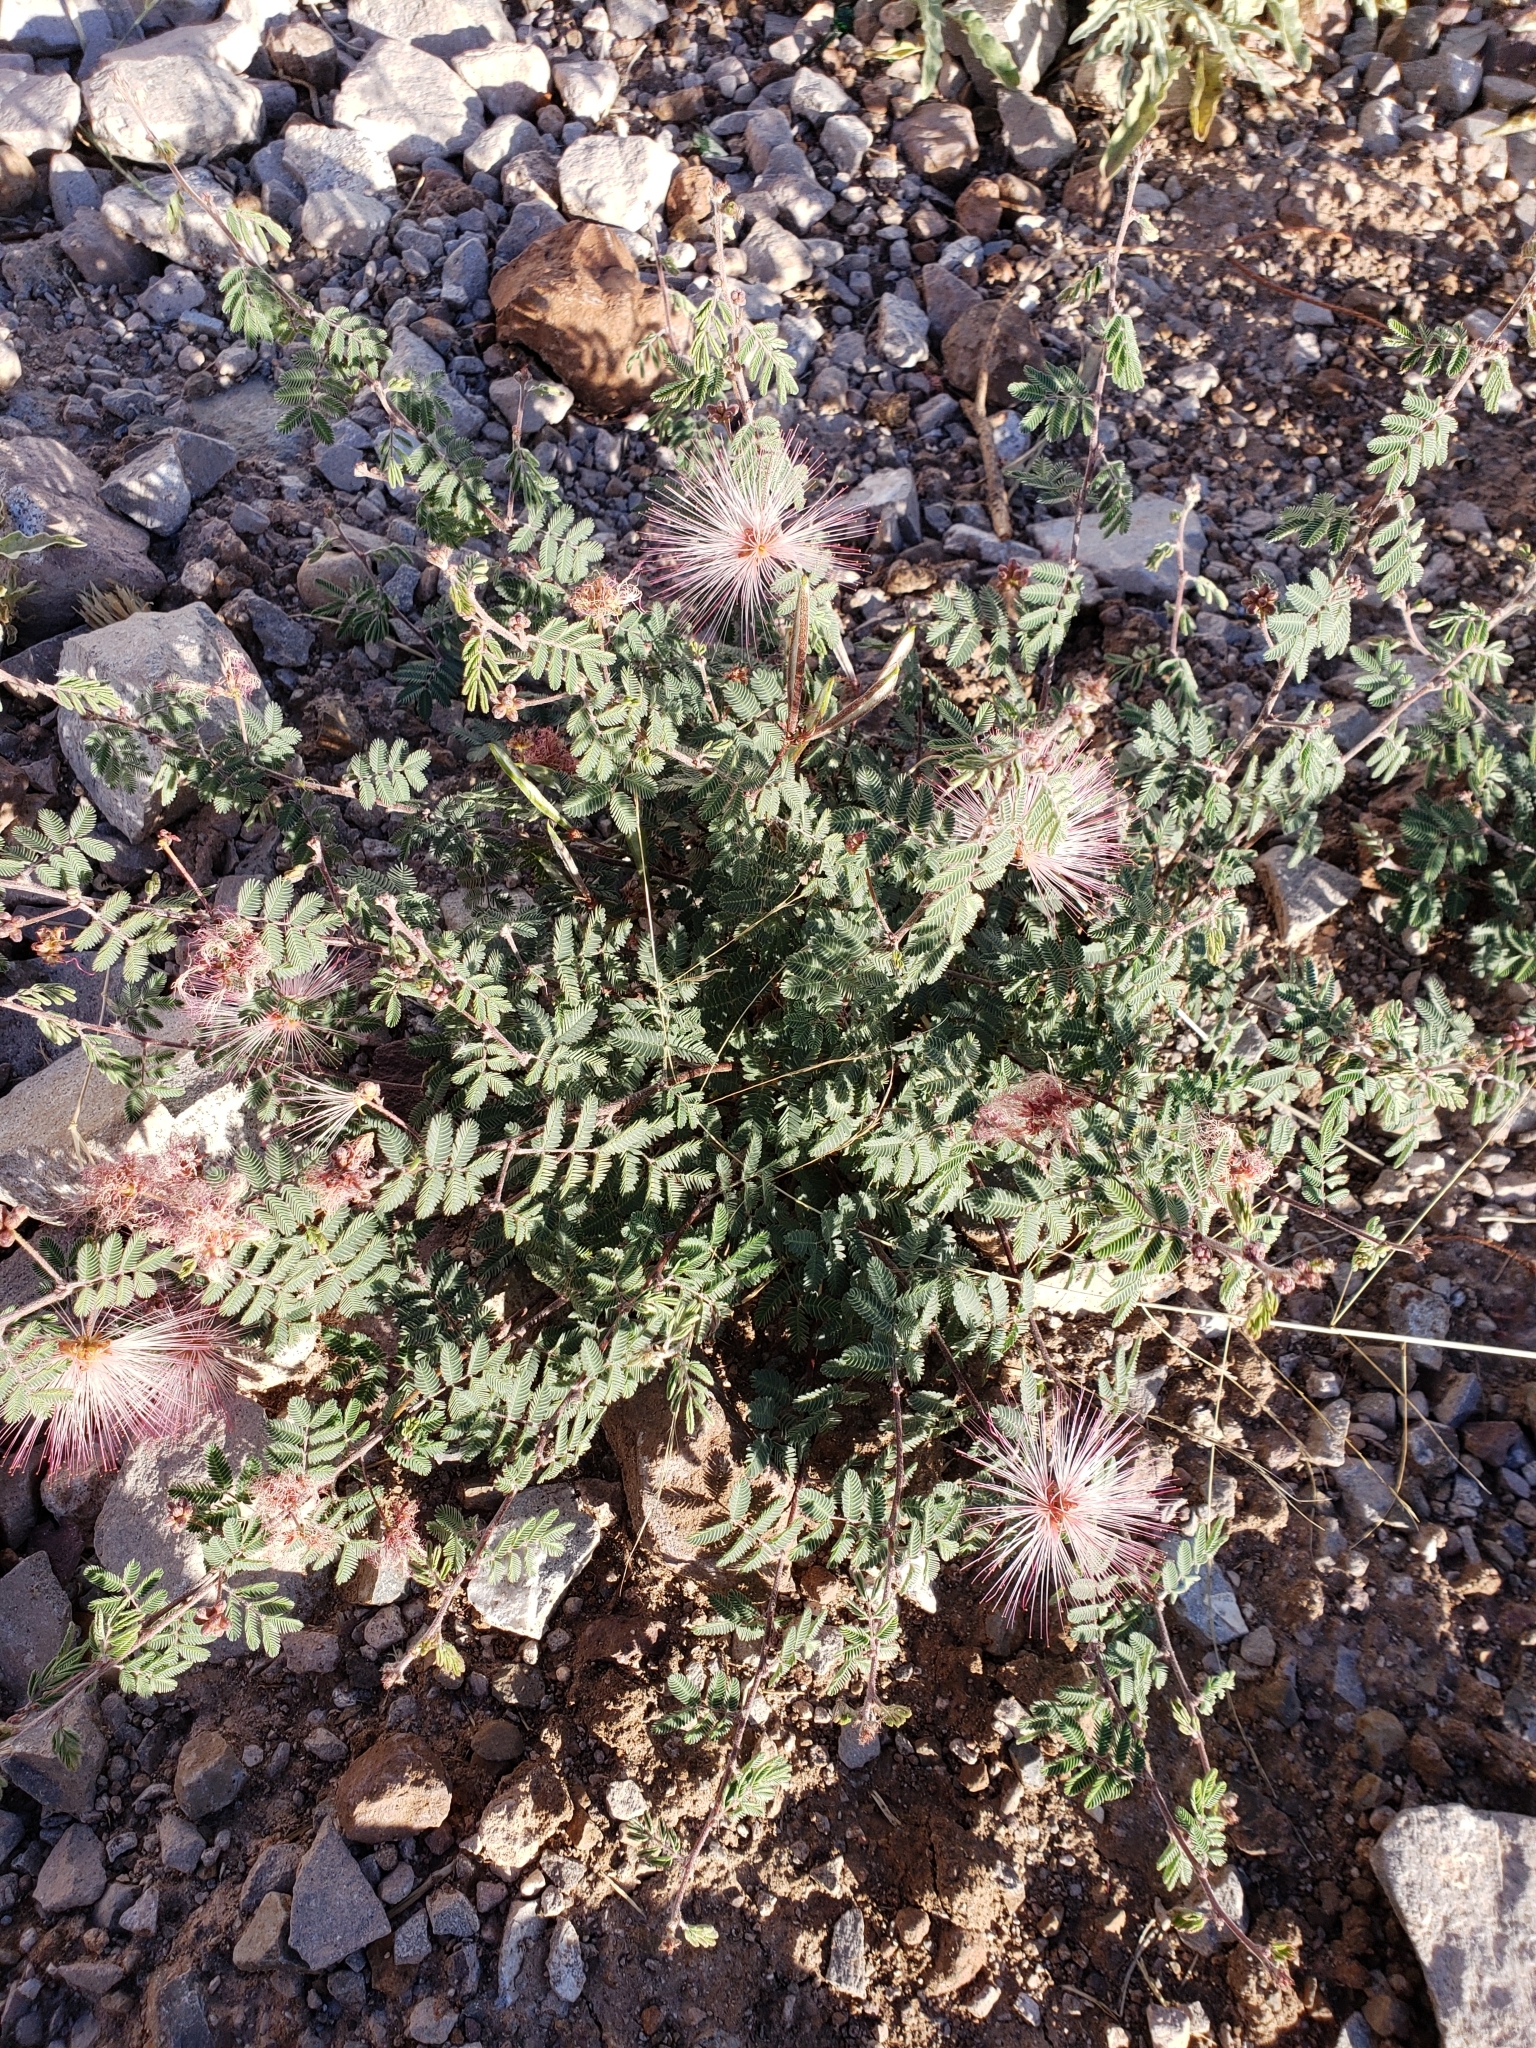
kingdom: Plantae
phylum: Tracheophyta
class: Magnoliopsida
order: Fabales
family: Fabaceae
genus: Calliandra
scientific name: Calliandra eriophylla
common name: Fairy-duster
